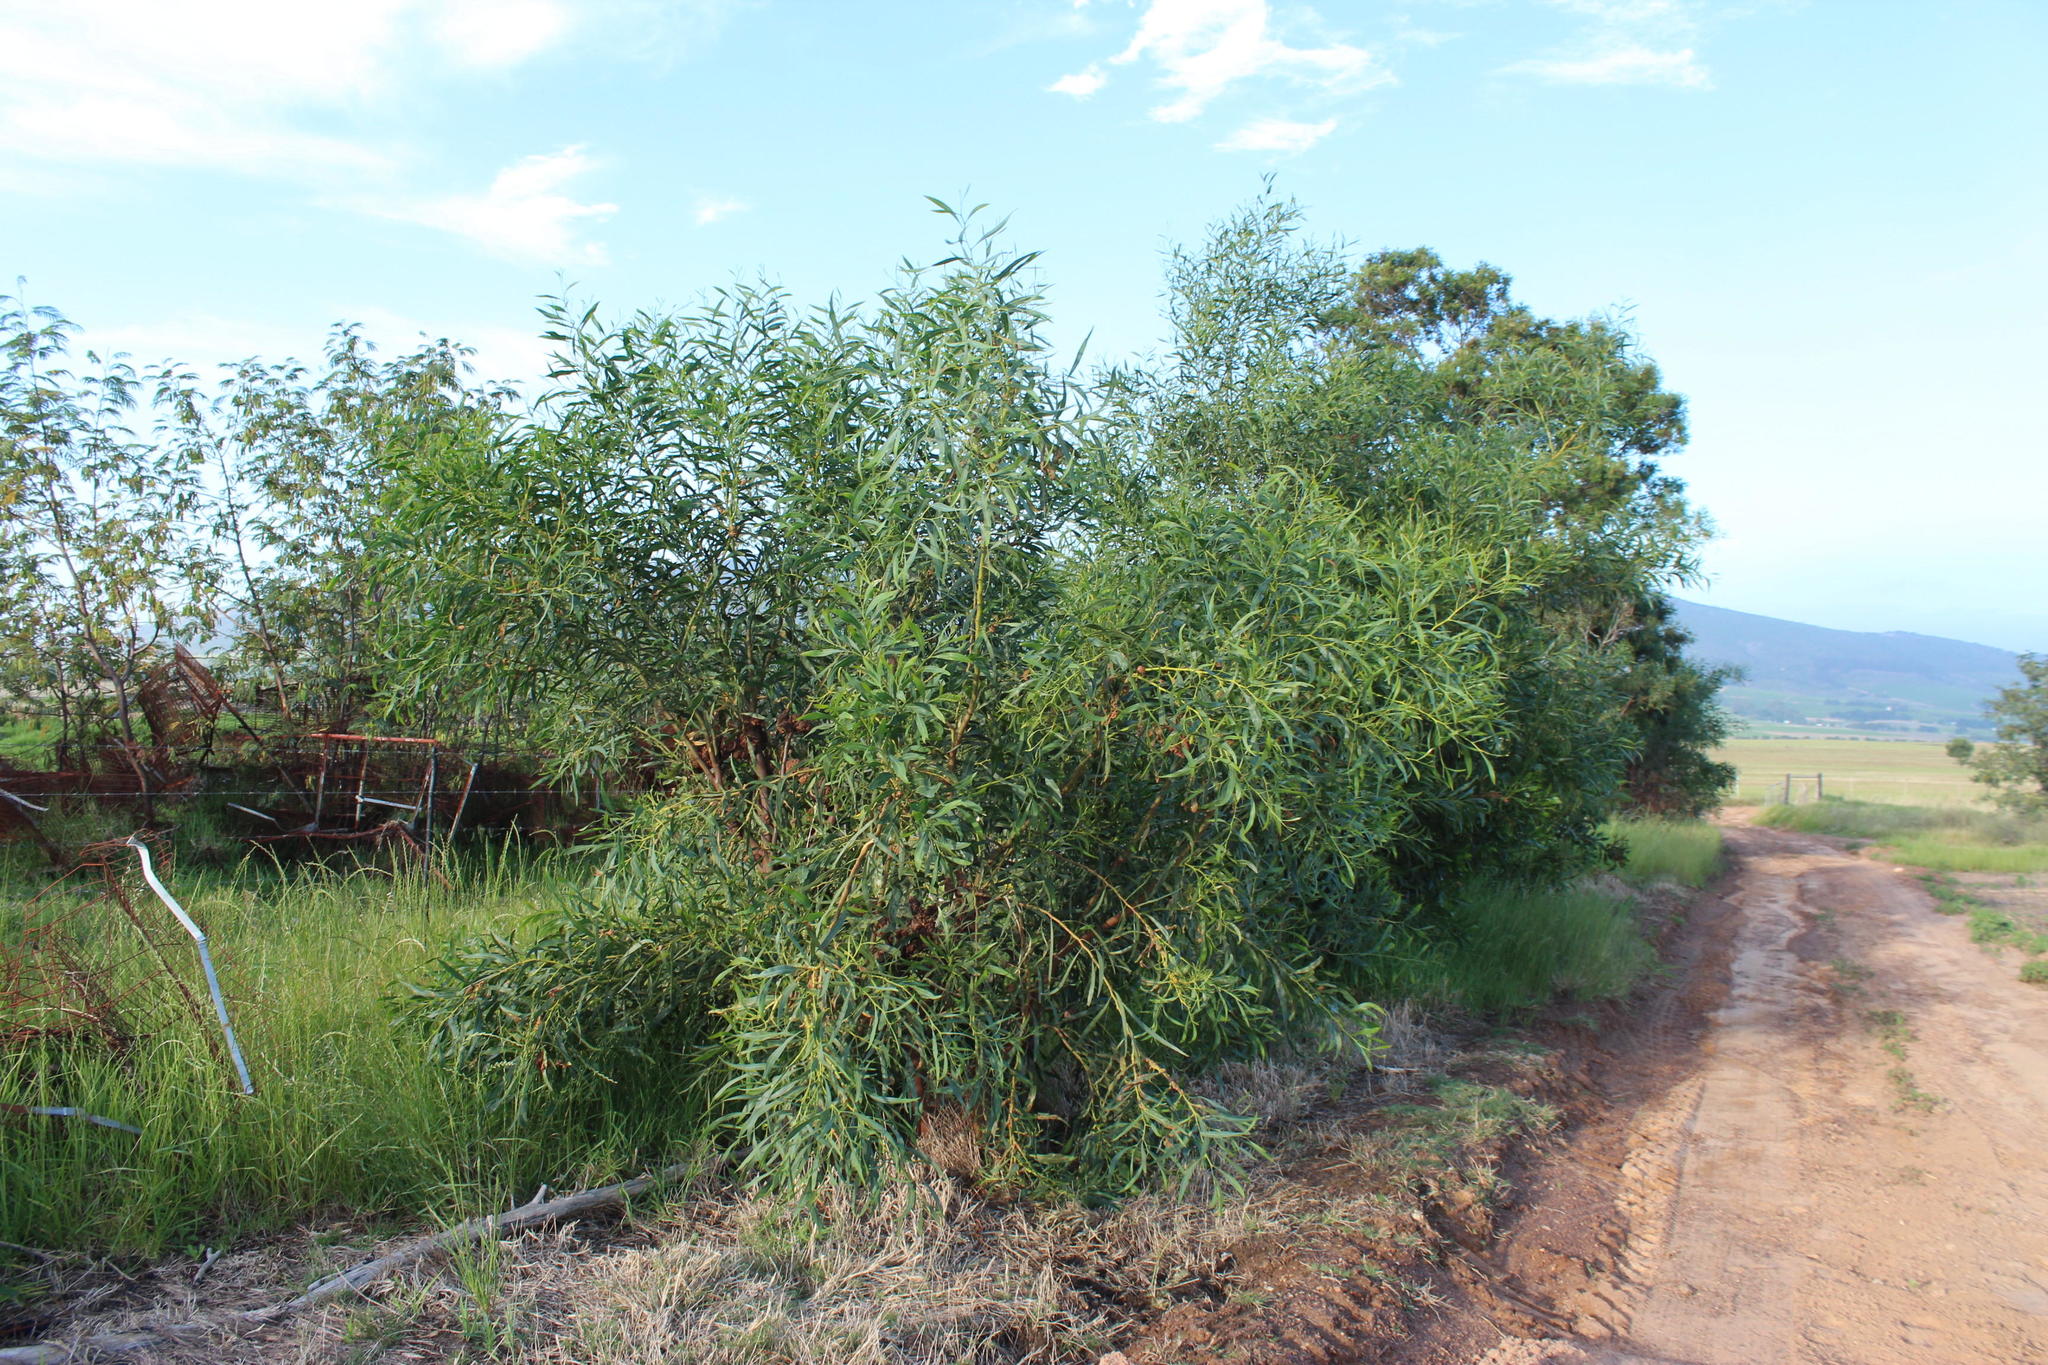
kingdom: Plantae
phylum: Tracheophyta
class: Magnoliopsida
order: Fabales
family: Fabaceae
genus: Acacia
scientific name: Acacia saligna
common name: Orange wattle
